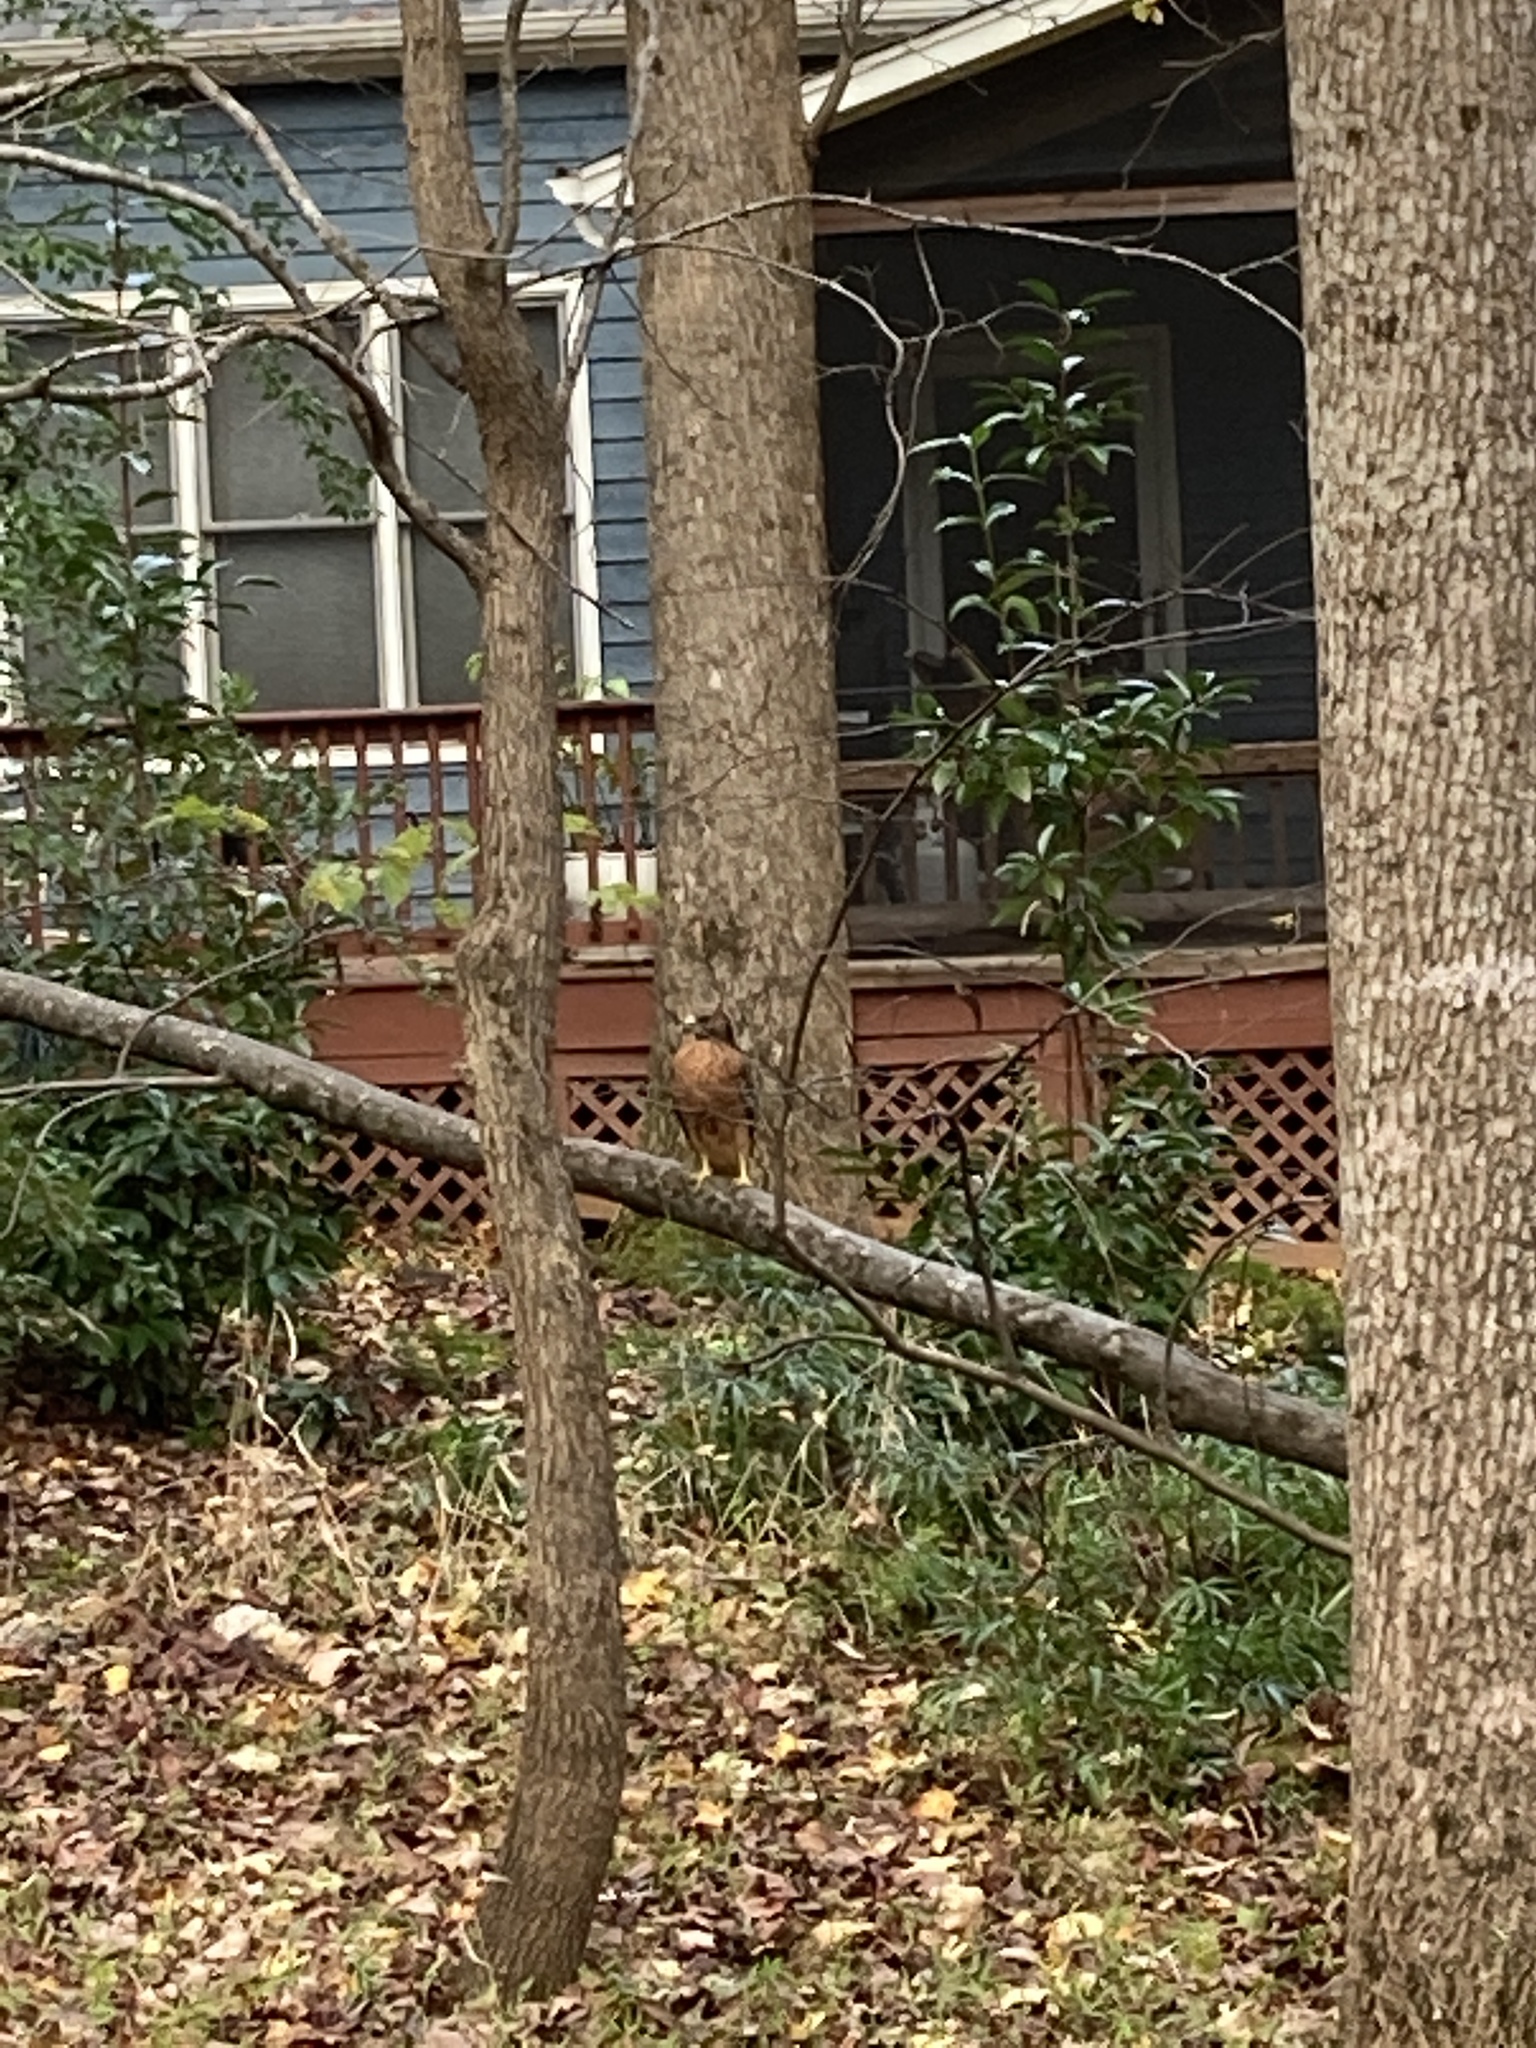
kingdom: Animalia
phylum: Chordata
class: Aves
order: Accipitriformes
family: Accipitridae
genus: Buteo
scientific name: Buteo lineatus
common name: Red-shouldered hawk
